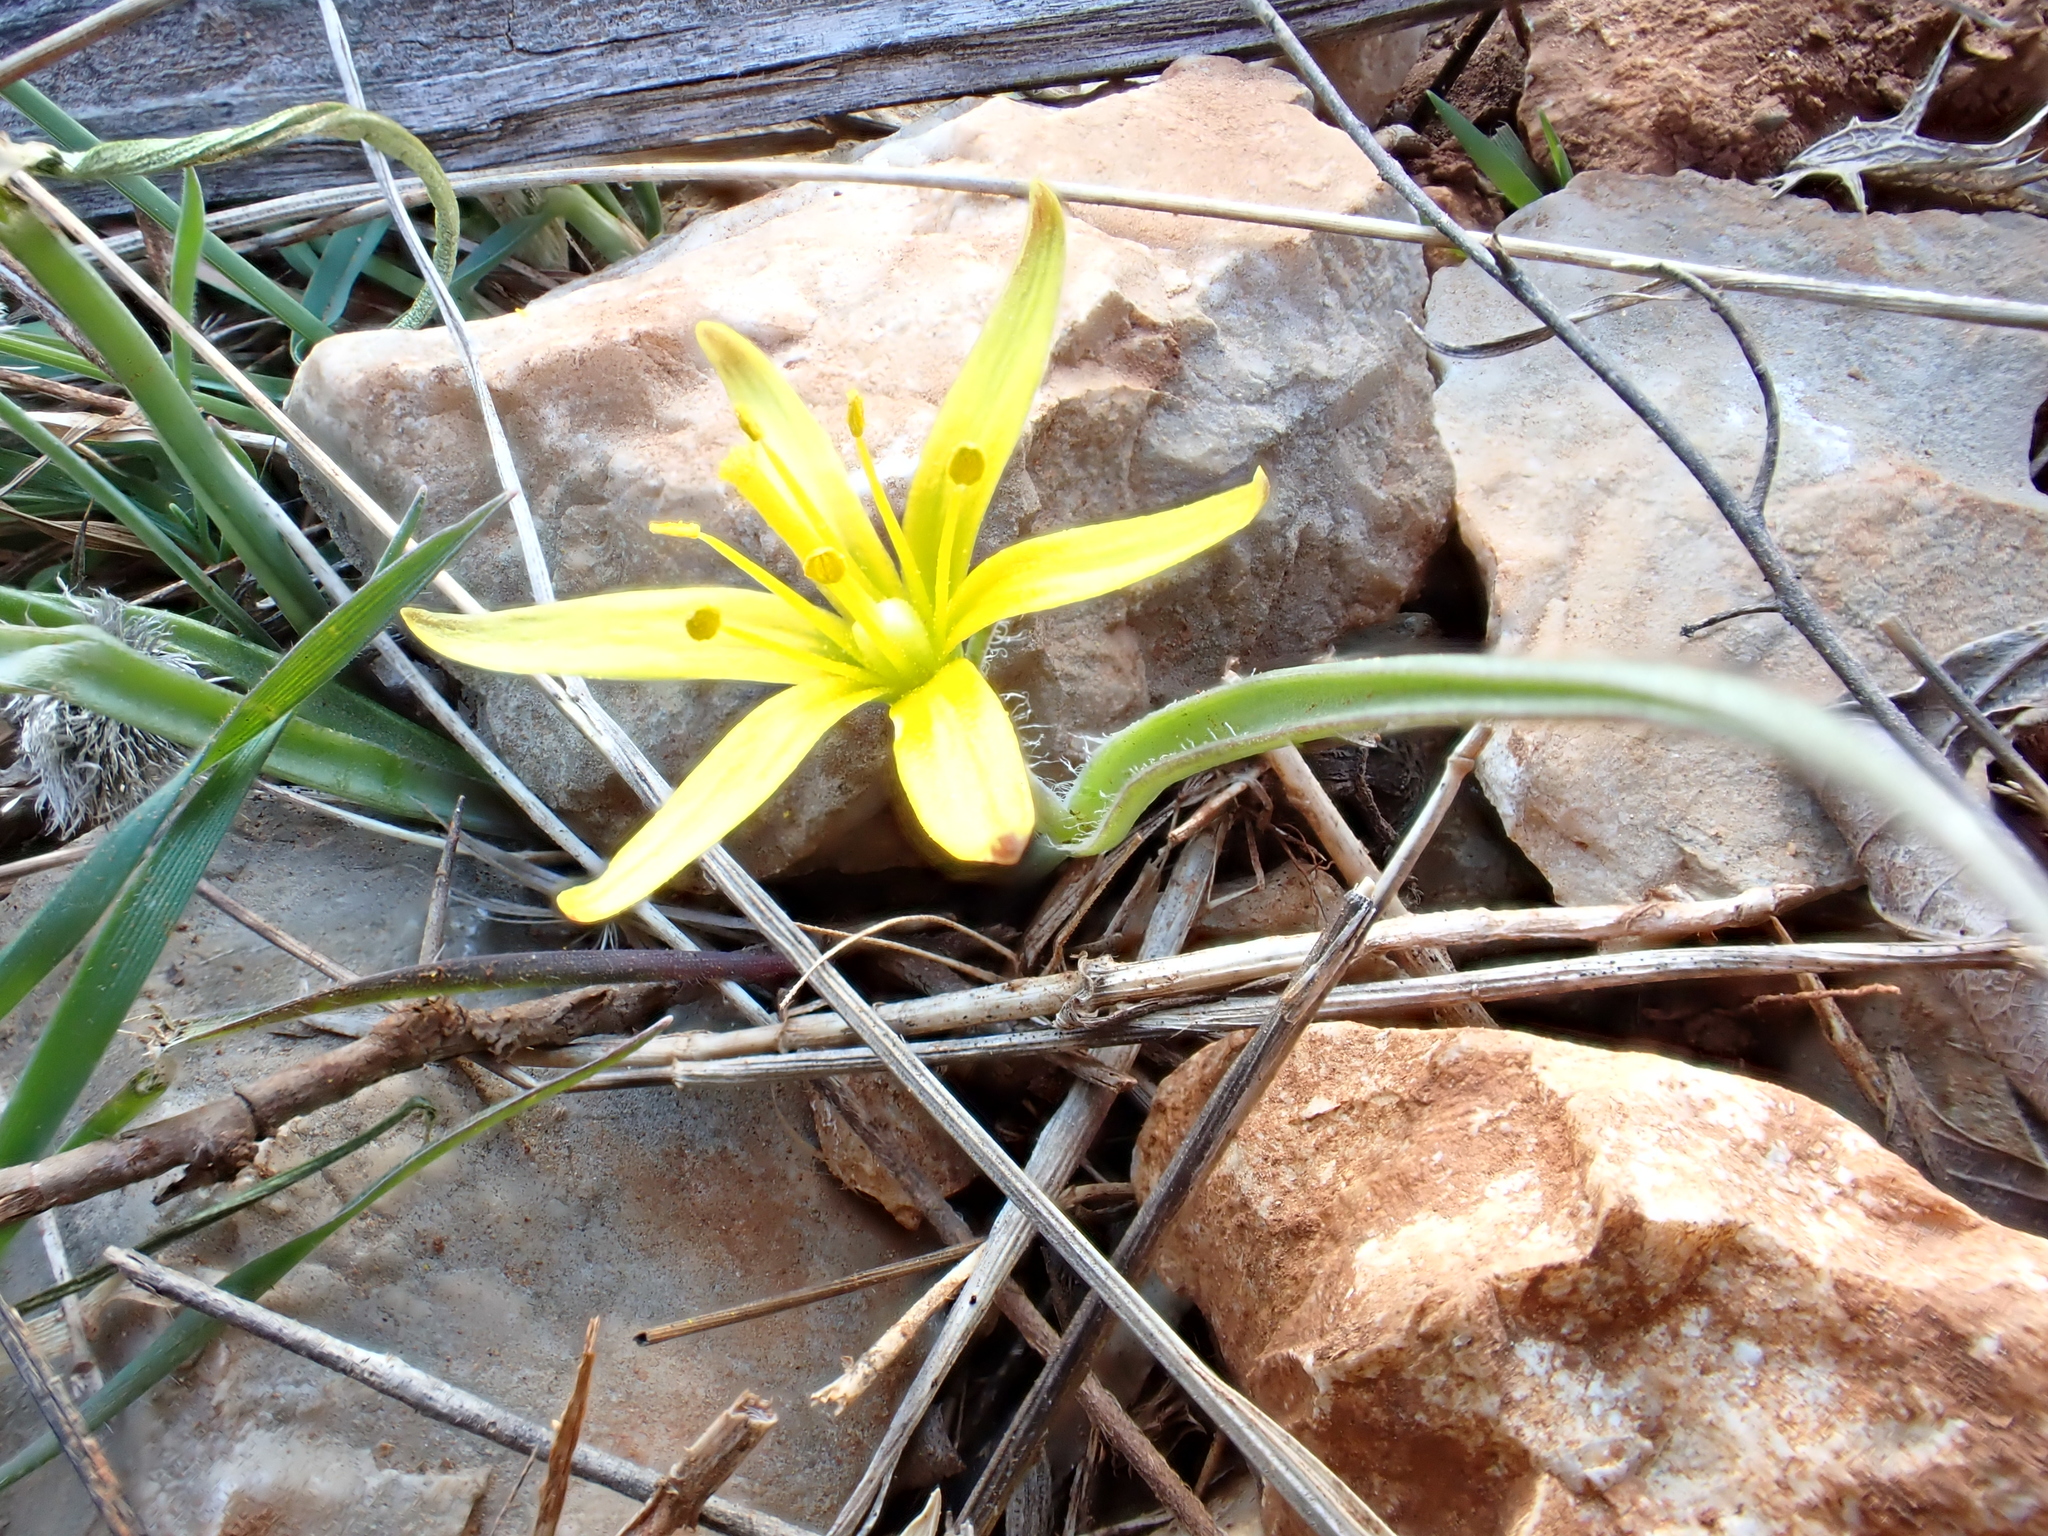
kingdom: Plantae
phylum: Tracheophyta
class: Liliopsida
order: Liliales
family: Liliaceae
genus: Gagea
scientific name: Gagea pratensis
